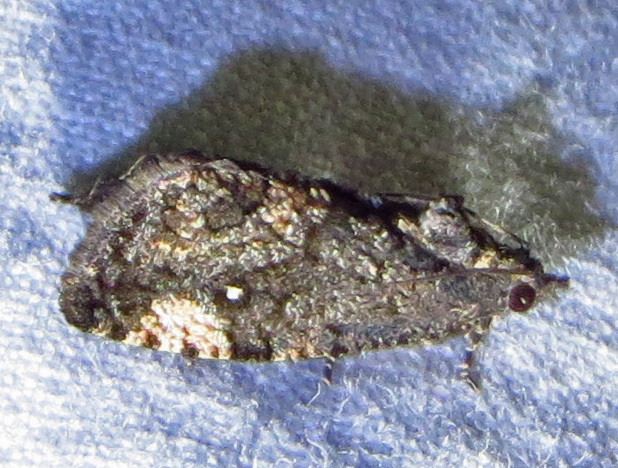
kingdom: Animalia
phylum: Arthropoda
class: Insecta
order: Lepidoptera
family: Tortricidae
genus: Gymnandrosoma
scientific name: Gymnandrosoma punctidiscanum
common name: Dotted ecdytolopha moth
